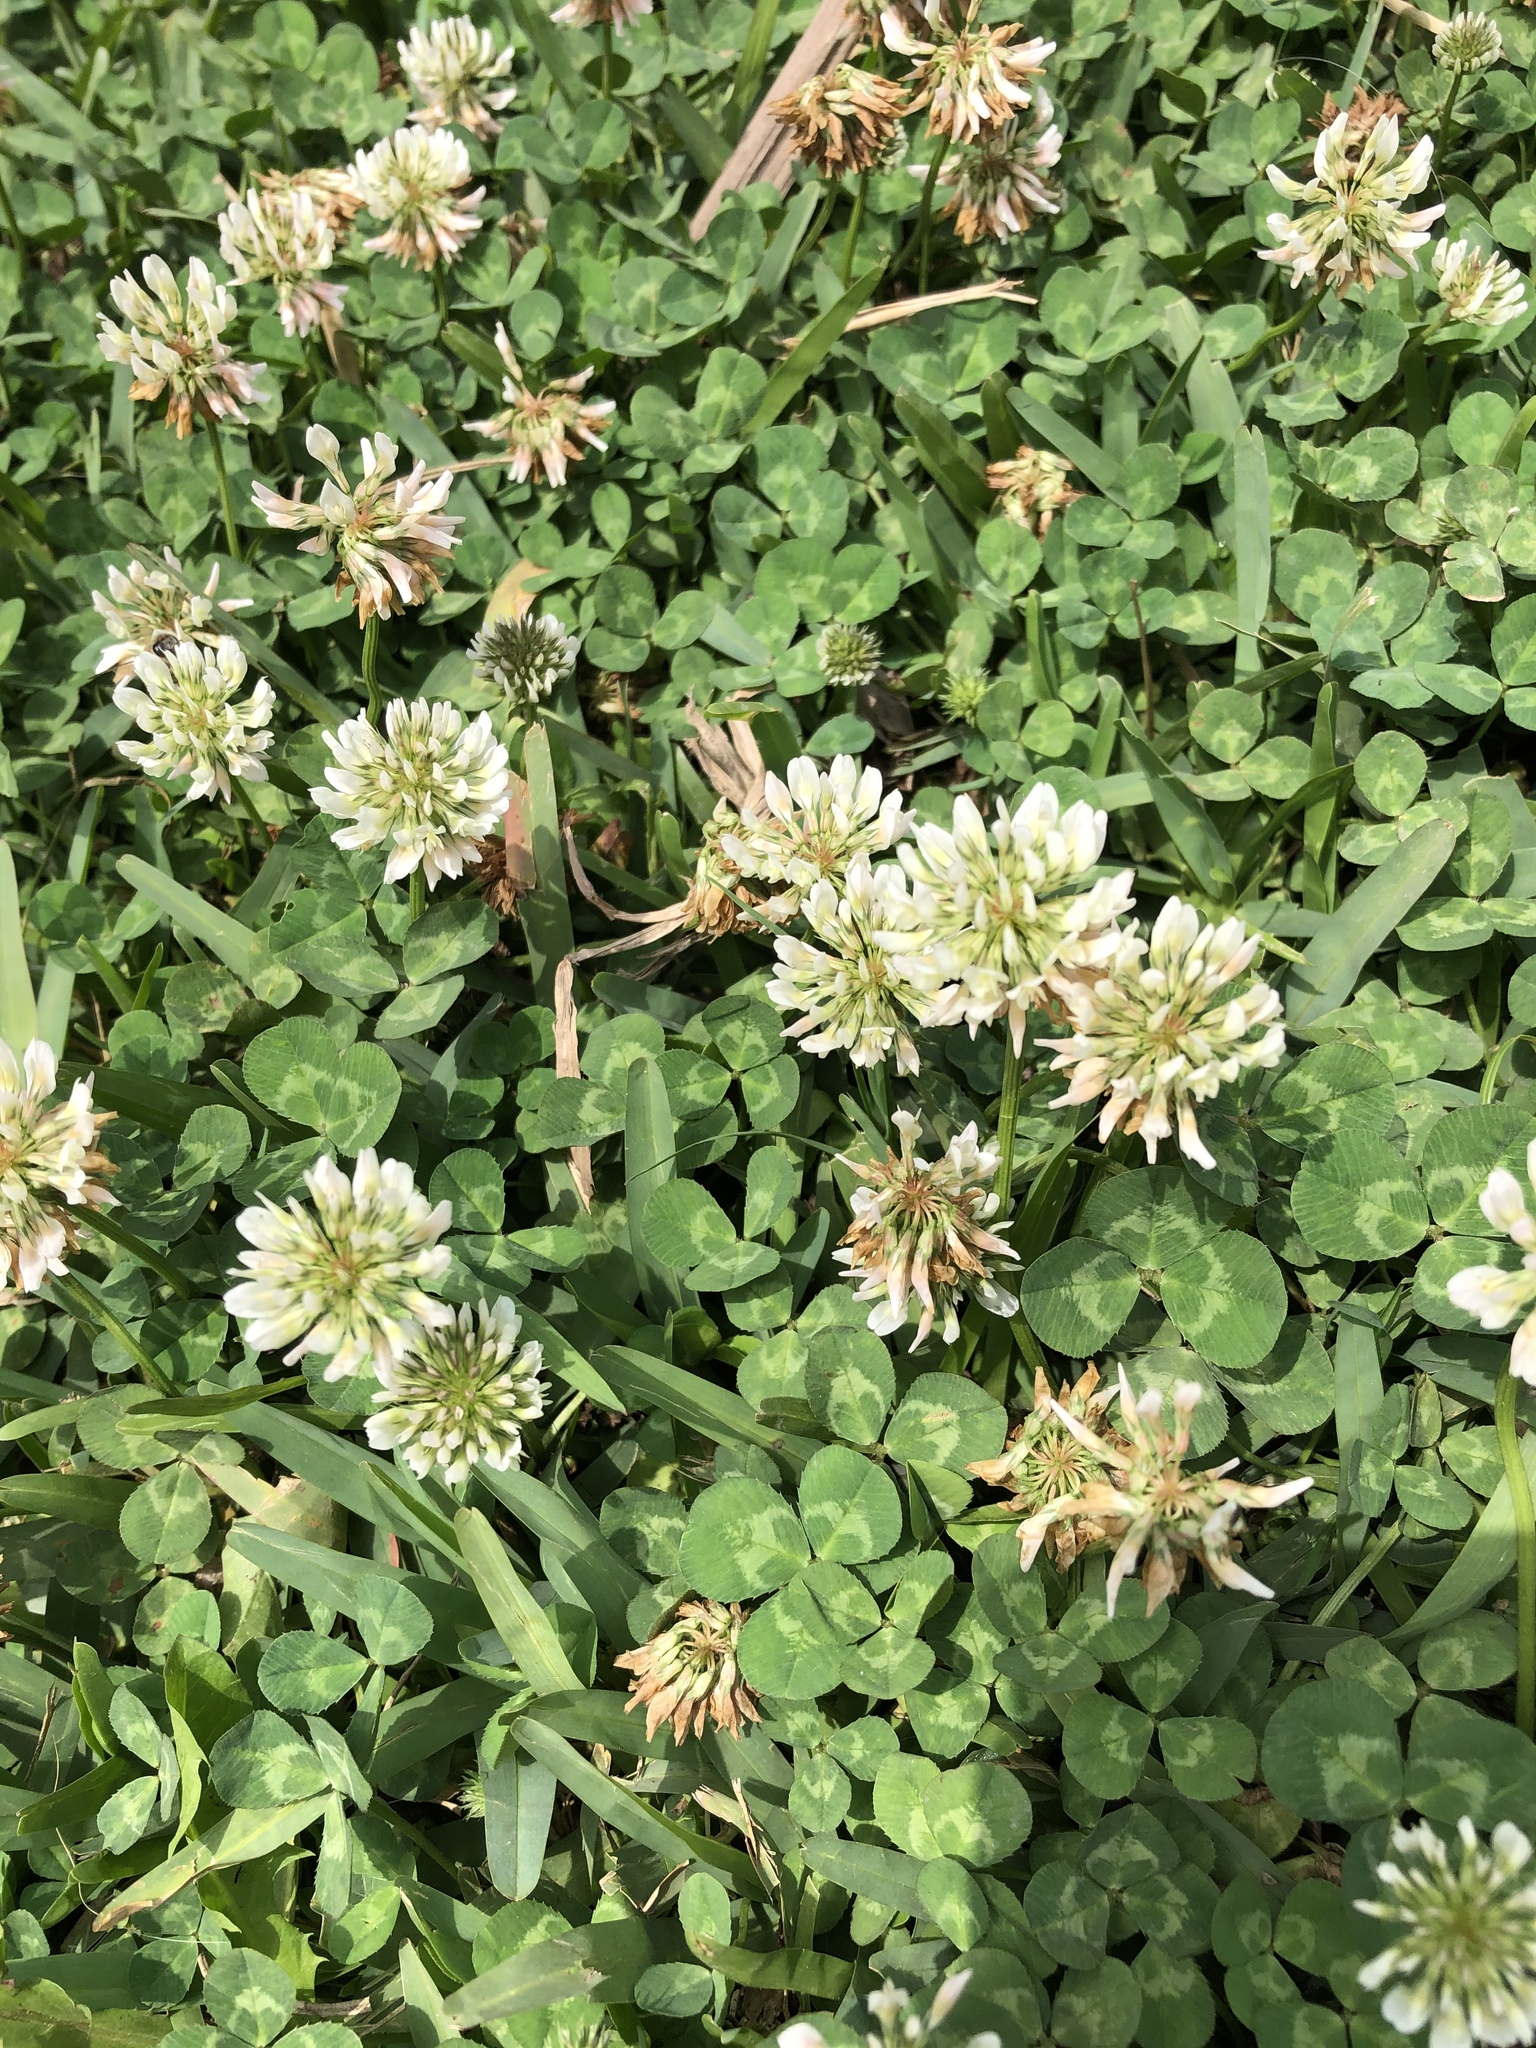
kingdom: Plantae
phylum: Tracheophyta
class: Magnoliopsida
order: Fabales
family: Fabaceae
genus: Trifolium
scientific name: Trifolium repens
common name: White clover
